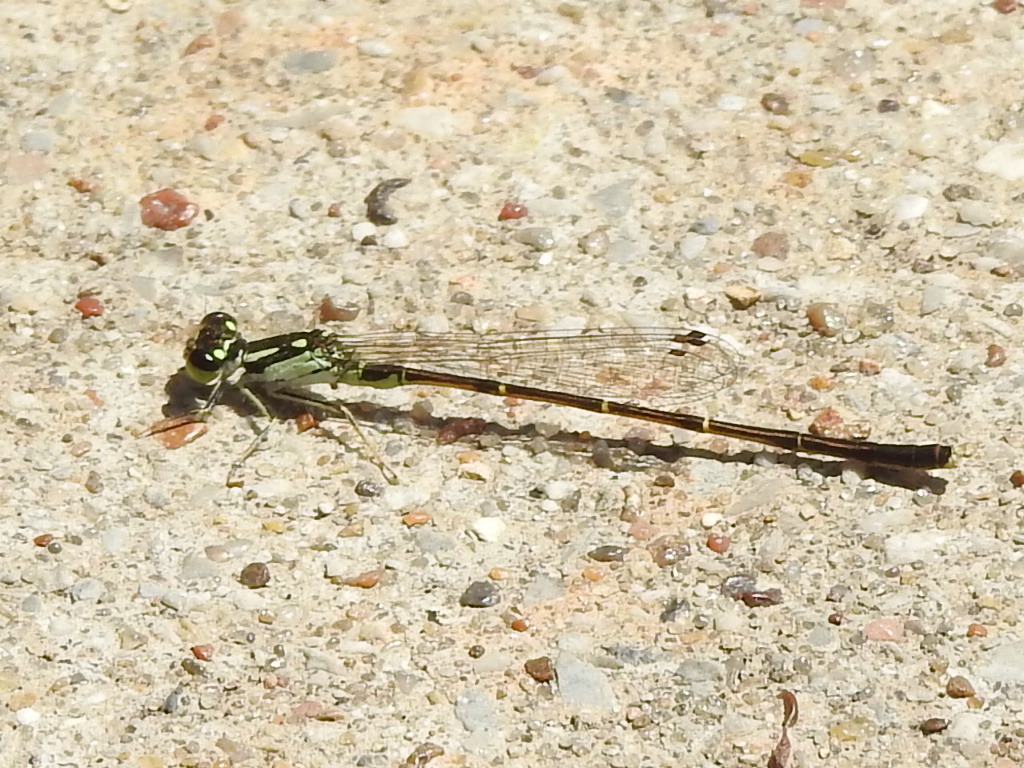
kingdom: Animalia
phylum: Arthropoda
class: Insecta
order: Odonata
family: Coenagrionidae
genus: Ischnura
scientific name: Ischnura posita
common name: Fragile forktail
